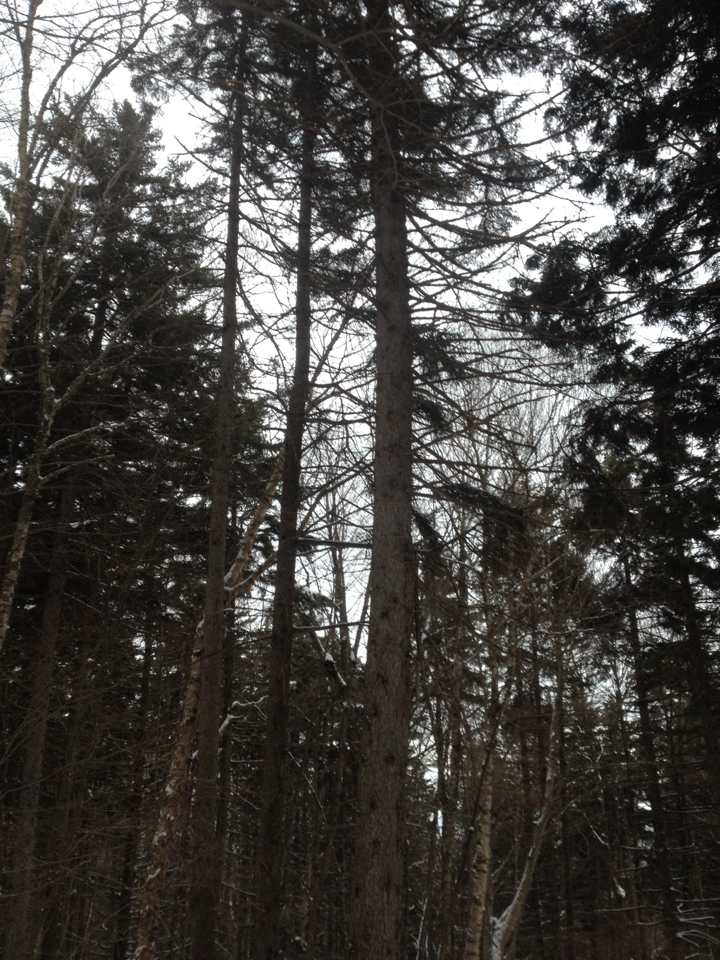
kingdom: Plantae
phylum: Tracheophyta
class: Pinopsida
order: Pinales
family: Pinaceae
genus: Picea
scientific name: Picea rubens
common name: Red spruce
